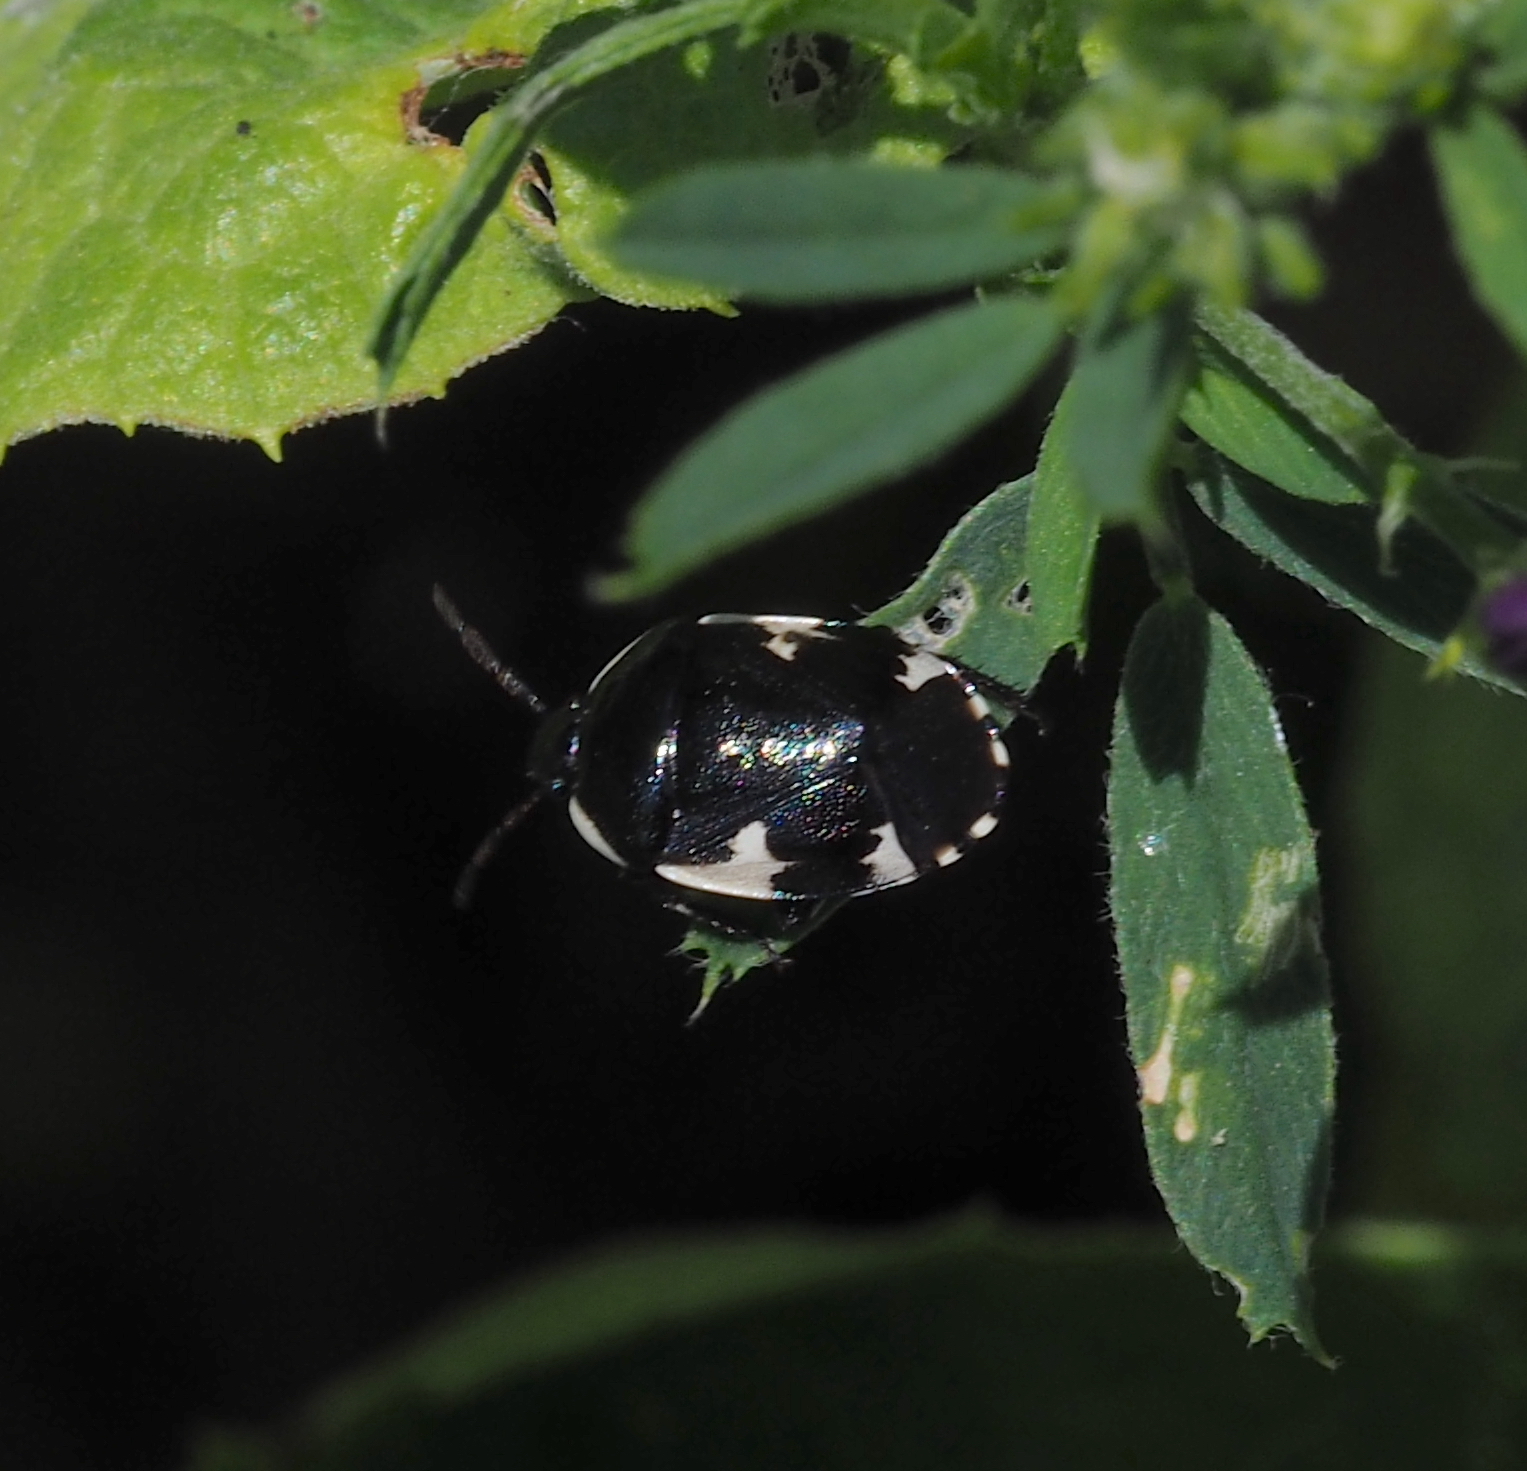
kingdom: Animalia
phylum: Arthropoda
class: Insecta
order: Hemiptera
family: Cydnidae
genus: Tritomegas
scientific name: Tritomegas sexmaculatus
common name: Rambur's pied shieldbug
